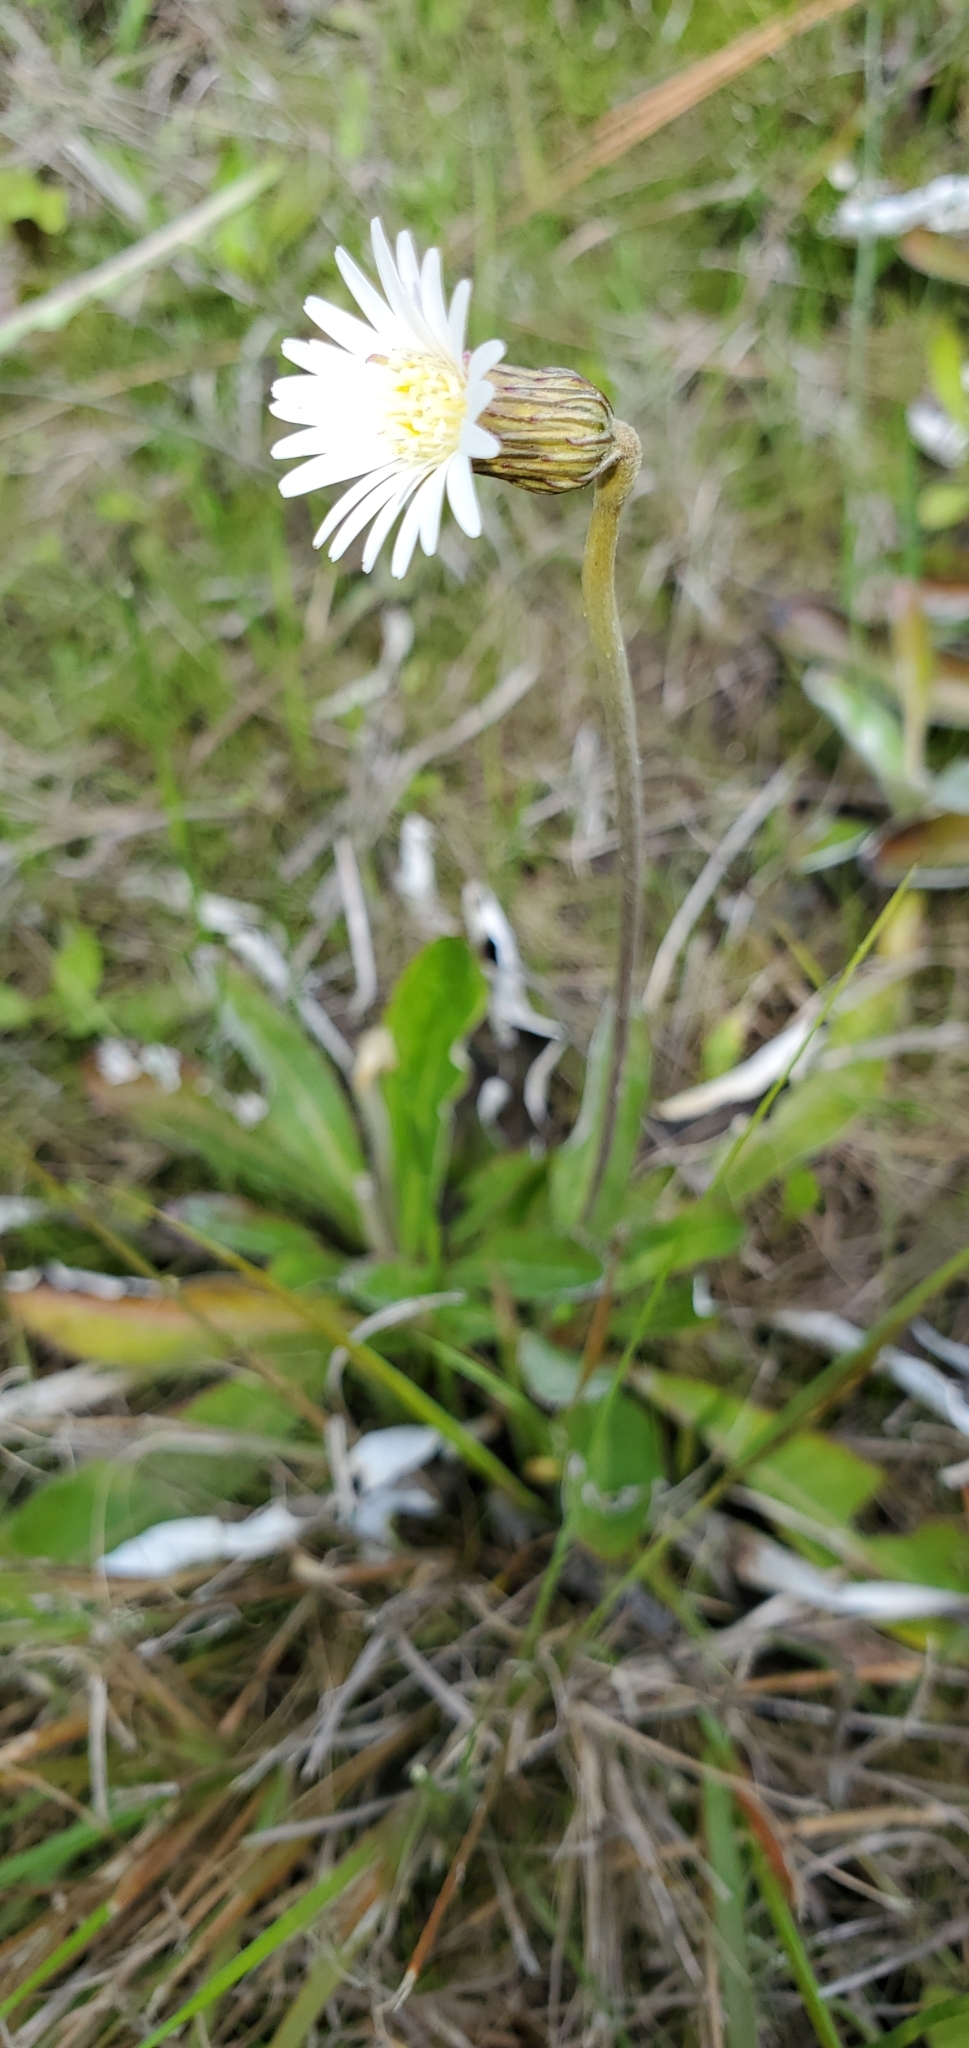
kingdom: Plantae
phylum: Tracheophyta
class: Magnoliopsida
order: Asterales
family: Asteraceae
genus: Chaptalia
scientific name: Chaptalia tomentosa
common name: Woolly sunbonnet
